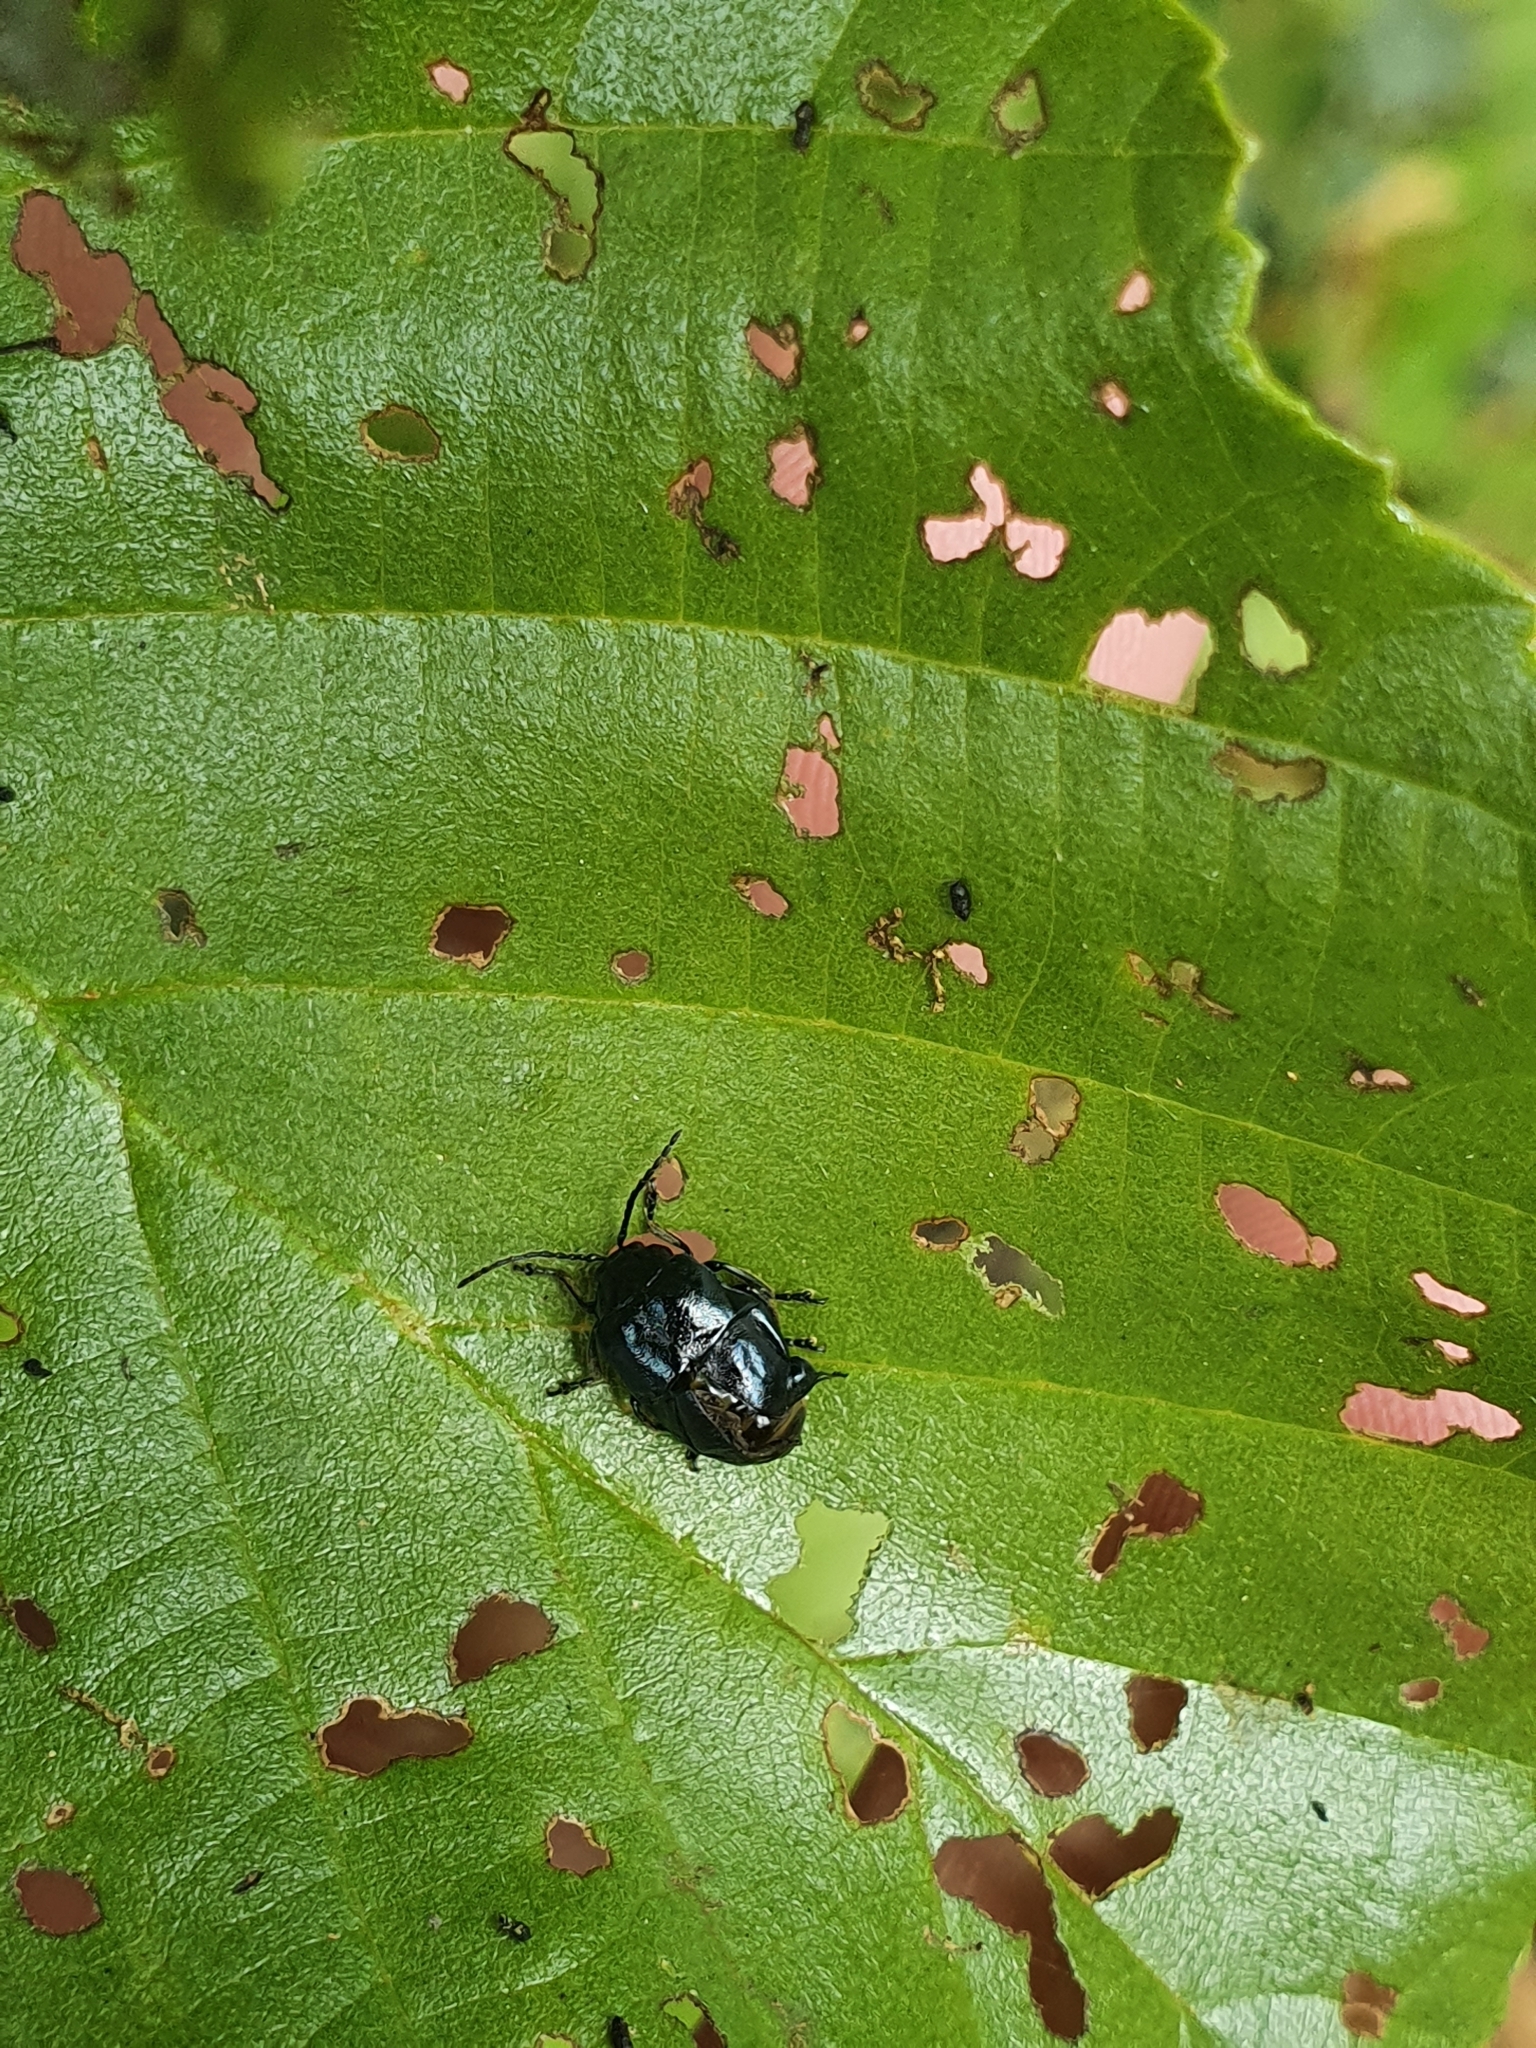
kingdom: Animalia
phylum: Arthropoda
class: Insecta
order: Coleoptera
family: Chrysomelidae
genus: Agelastica
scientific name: Agelastica alni
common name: Alder leaf beetle
